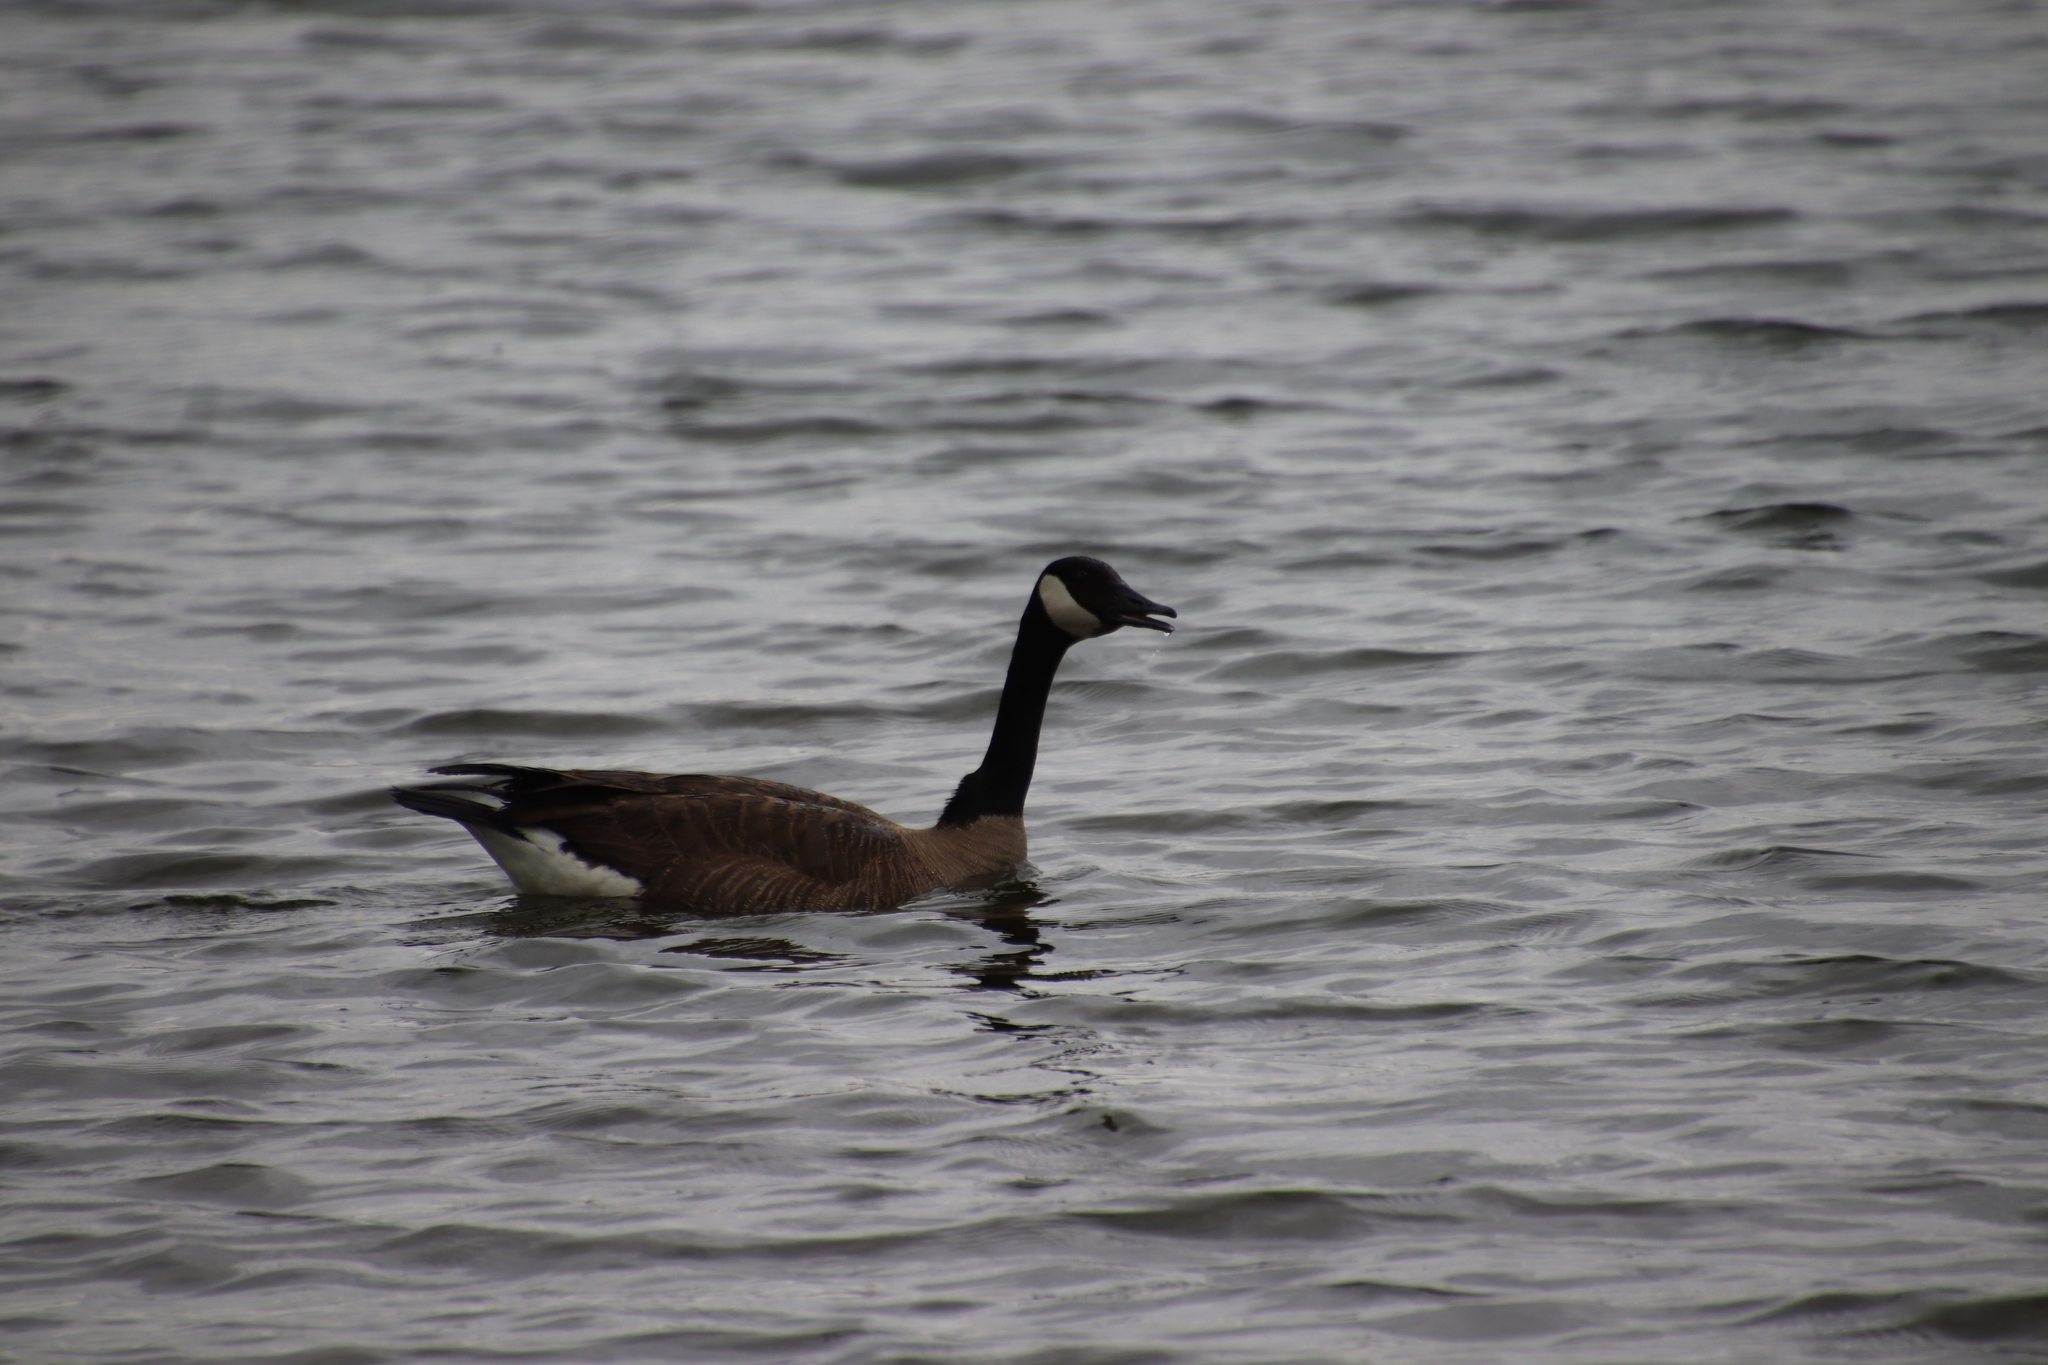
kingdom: Animalia
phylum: Chordata
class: Aves
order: Anseriformes
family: Anatidae
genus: Branta
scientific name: Branta canadensis
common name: Canada goose
